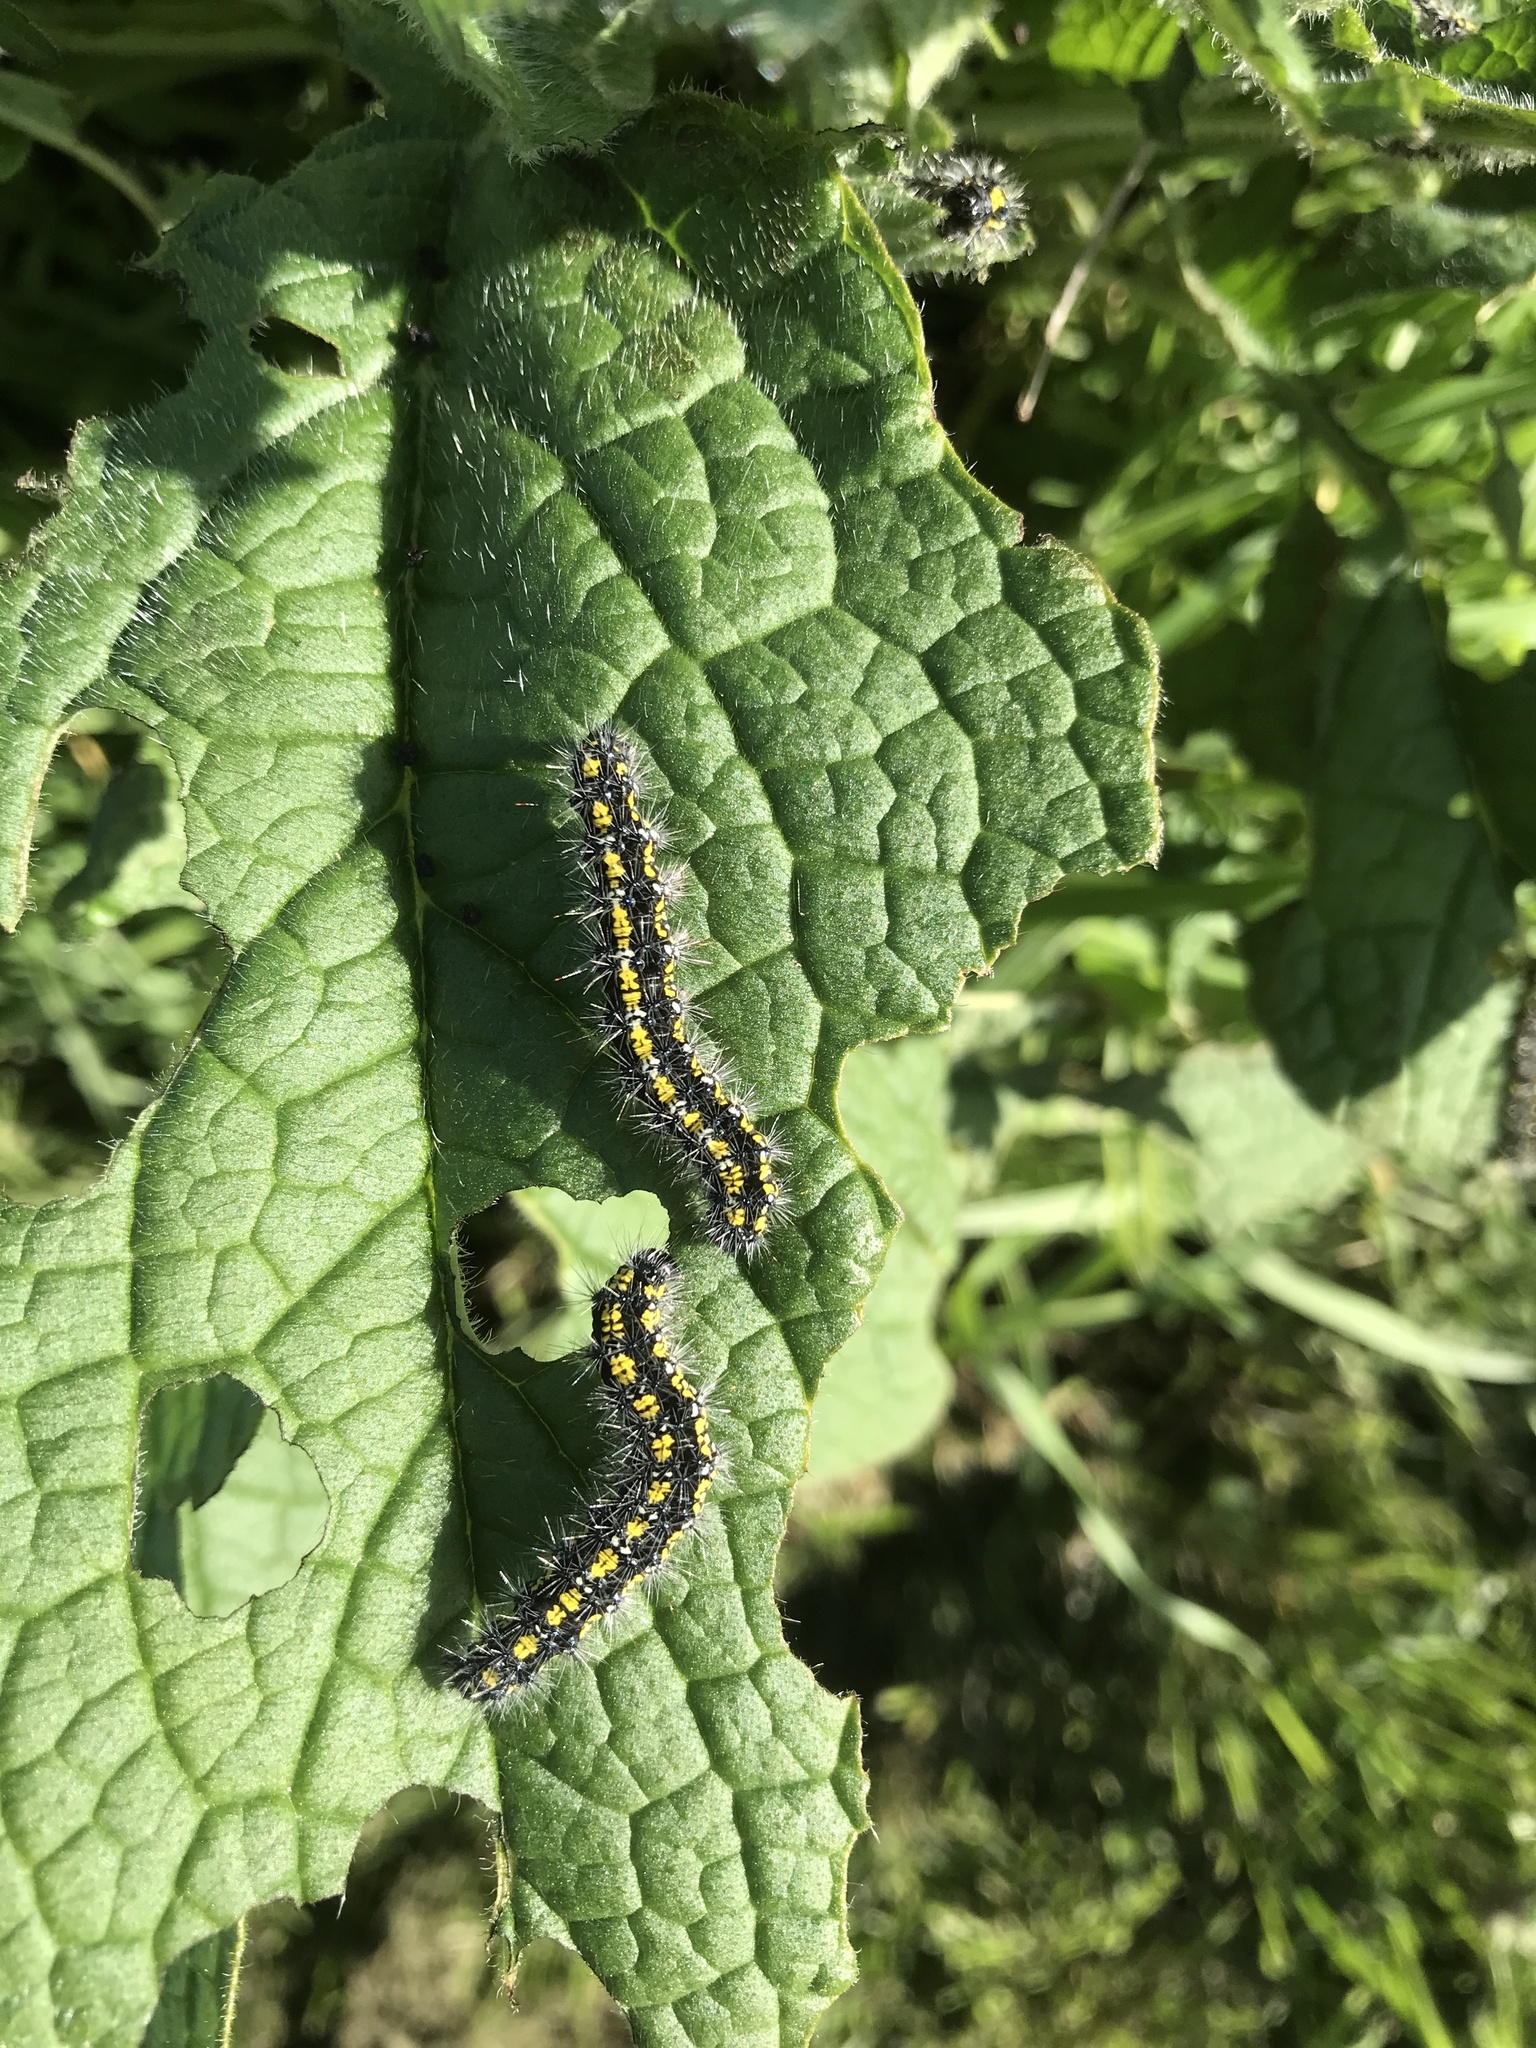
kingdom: Animalia
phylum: Arthropoda
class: Insecta
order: Lepidoptera
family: Erebidae
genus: Callimorpha
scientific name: Callimorpha dominula
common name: Scarlet tiger
